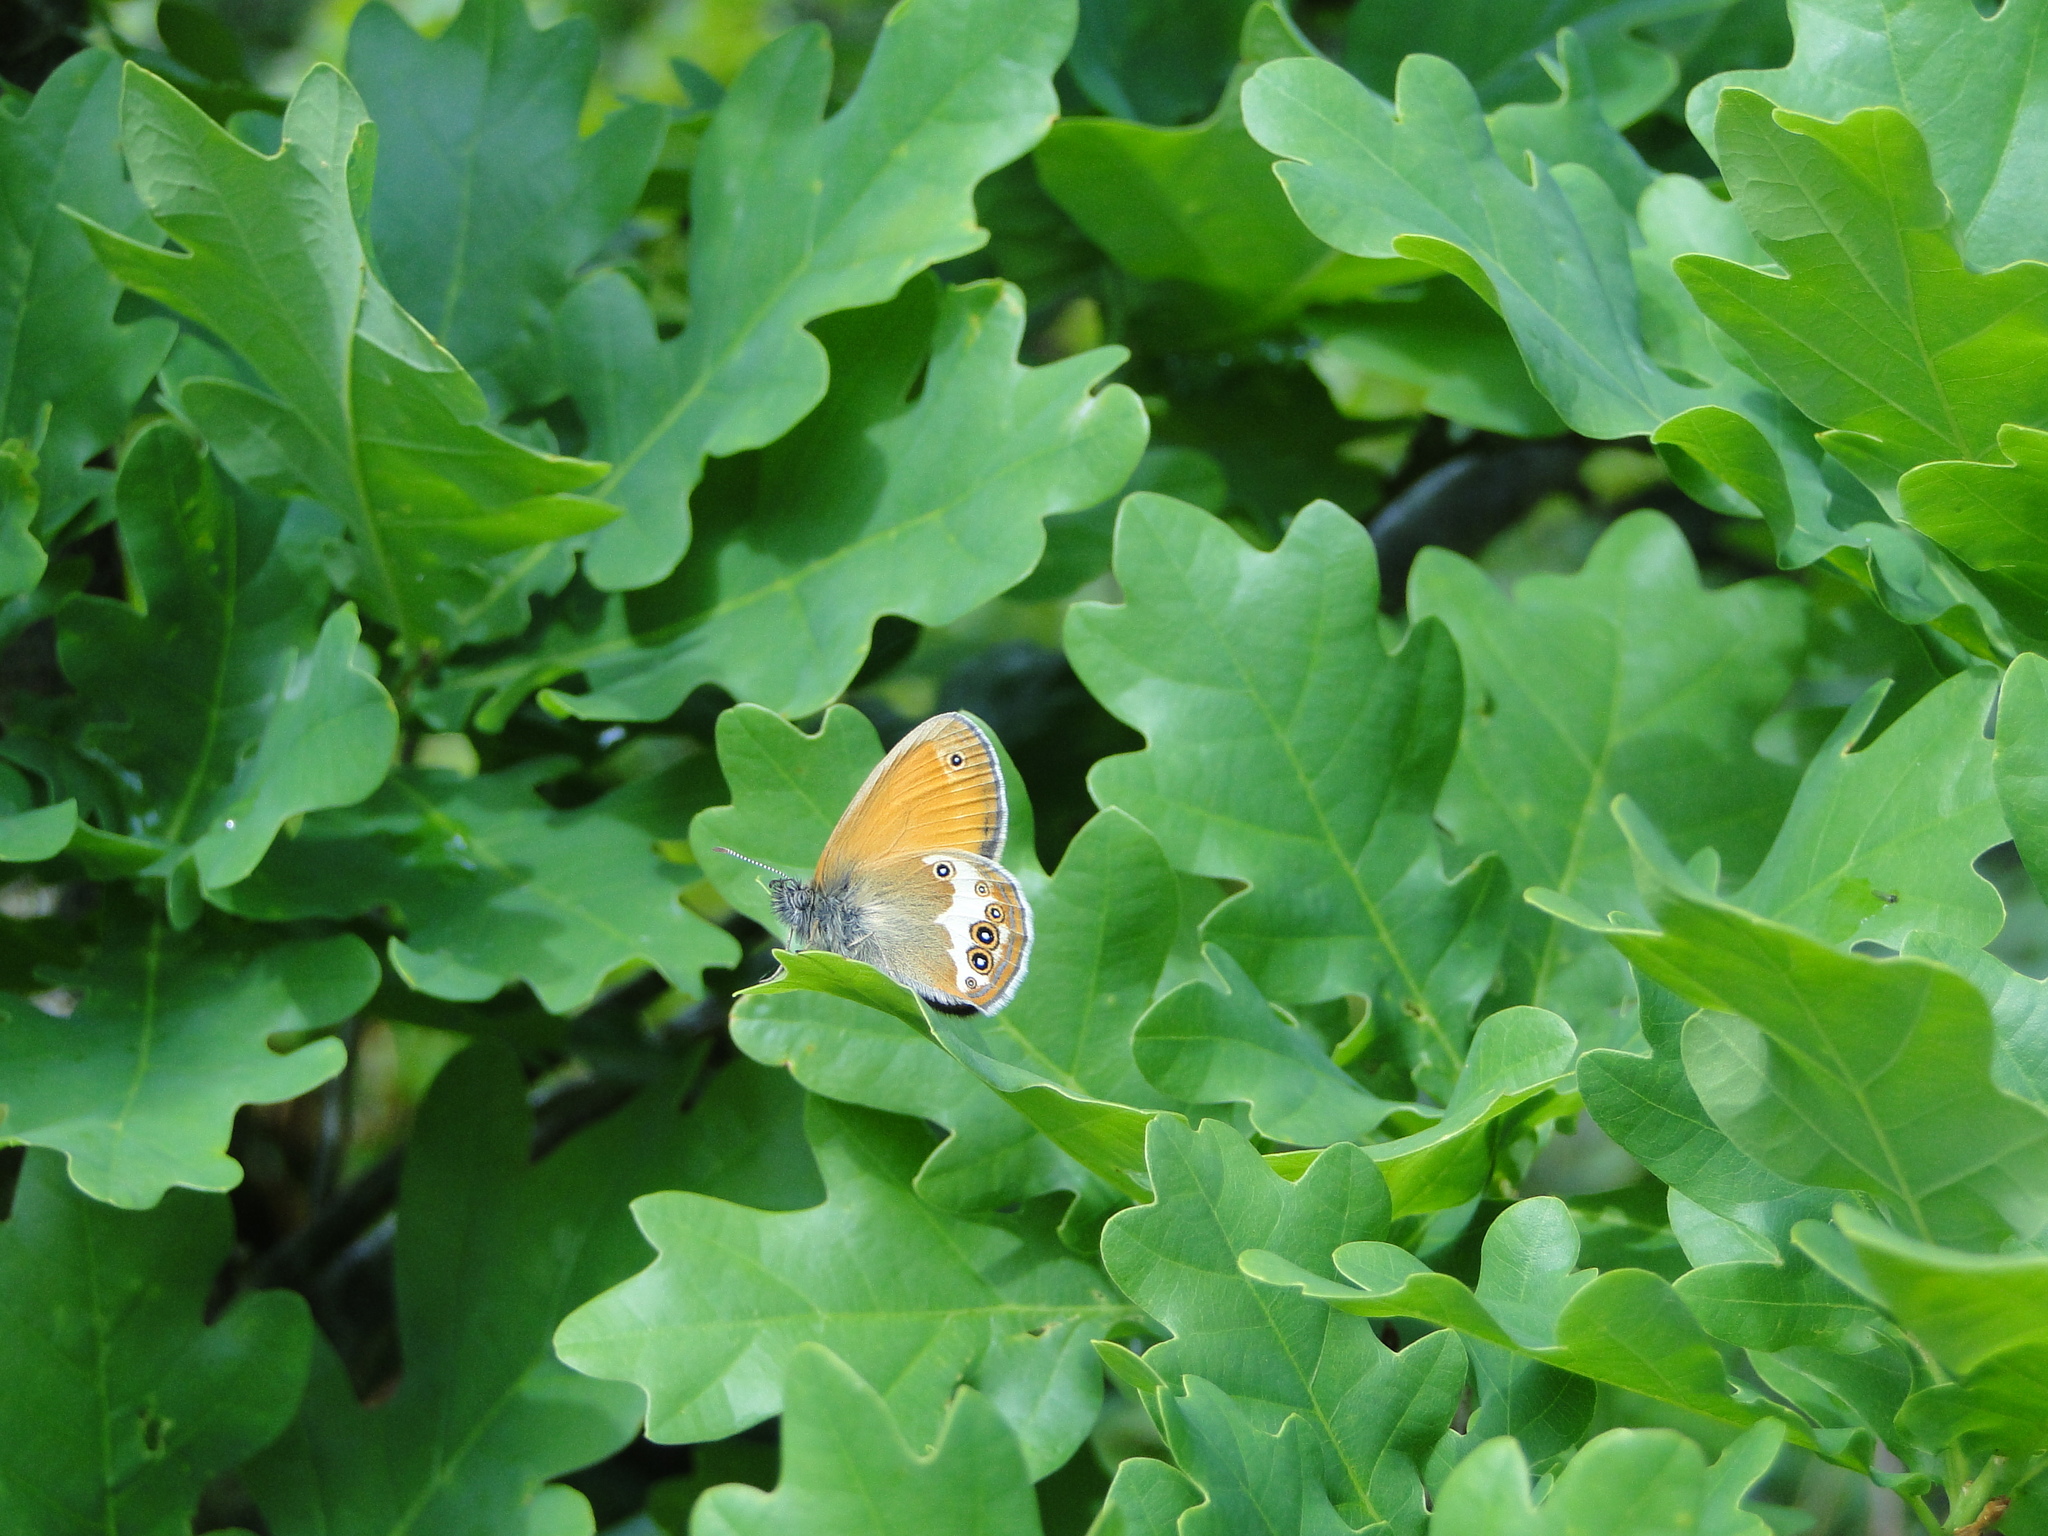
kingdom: Animalia
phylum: Arthropoda
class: Insecta
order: Lepidoptera
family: Nymphalidae
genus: Coenonympha
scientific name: Coenonympha arcania
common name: Pearly heath
